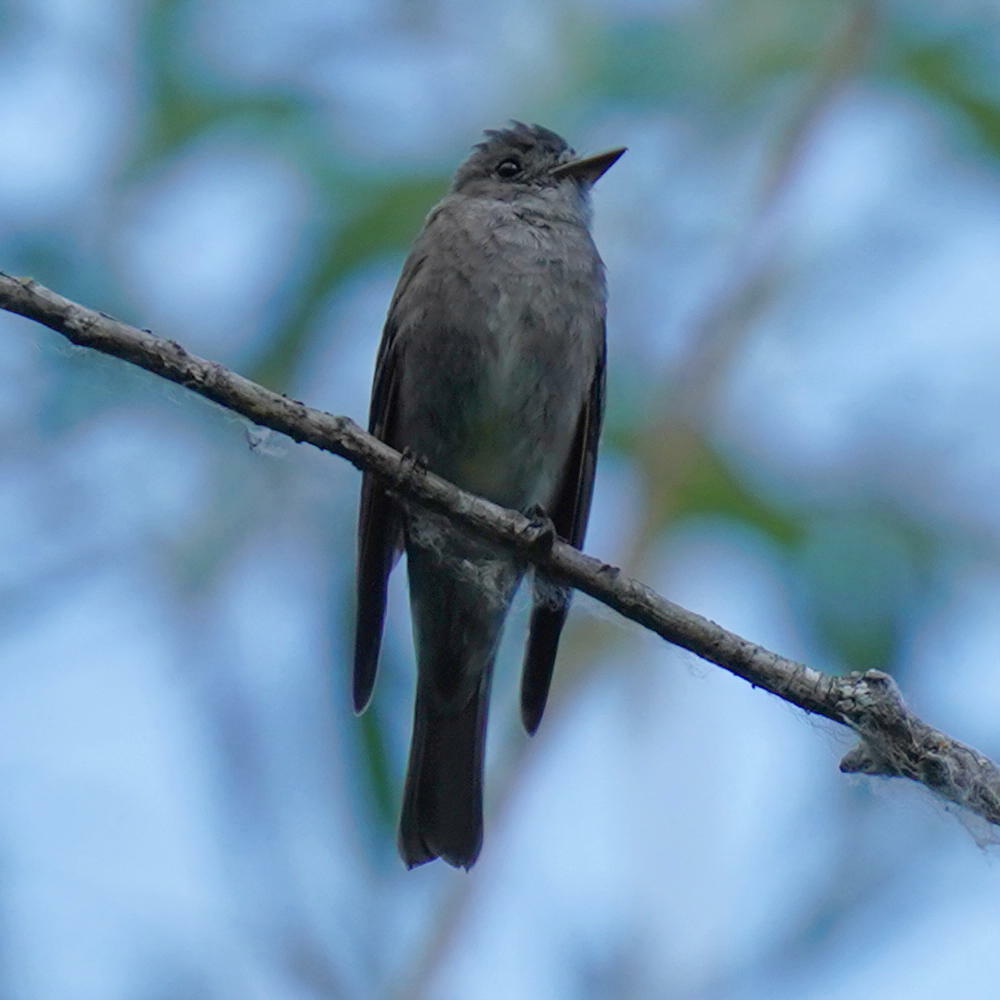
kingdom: Animalia
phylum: Chordata
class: Aves
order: Passeriformes
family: Tyrannidae
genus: Contopus
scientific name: Contopus sordidulus
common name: Western wood-pewee
